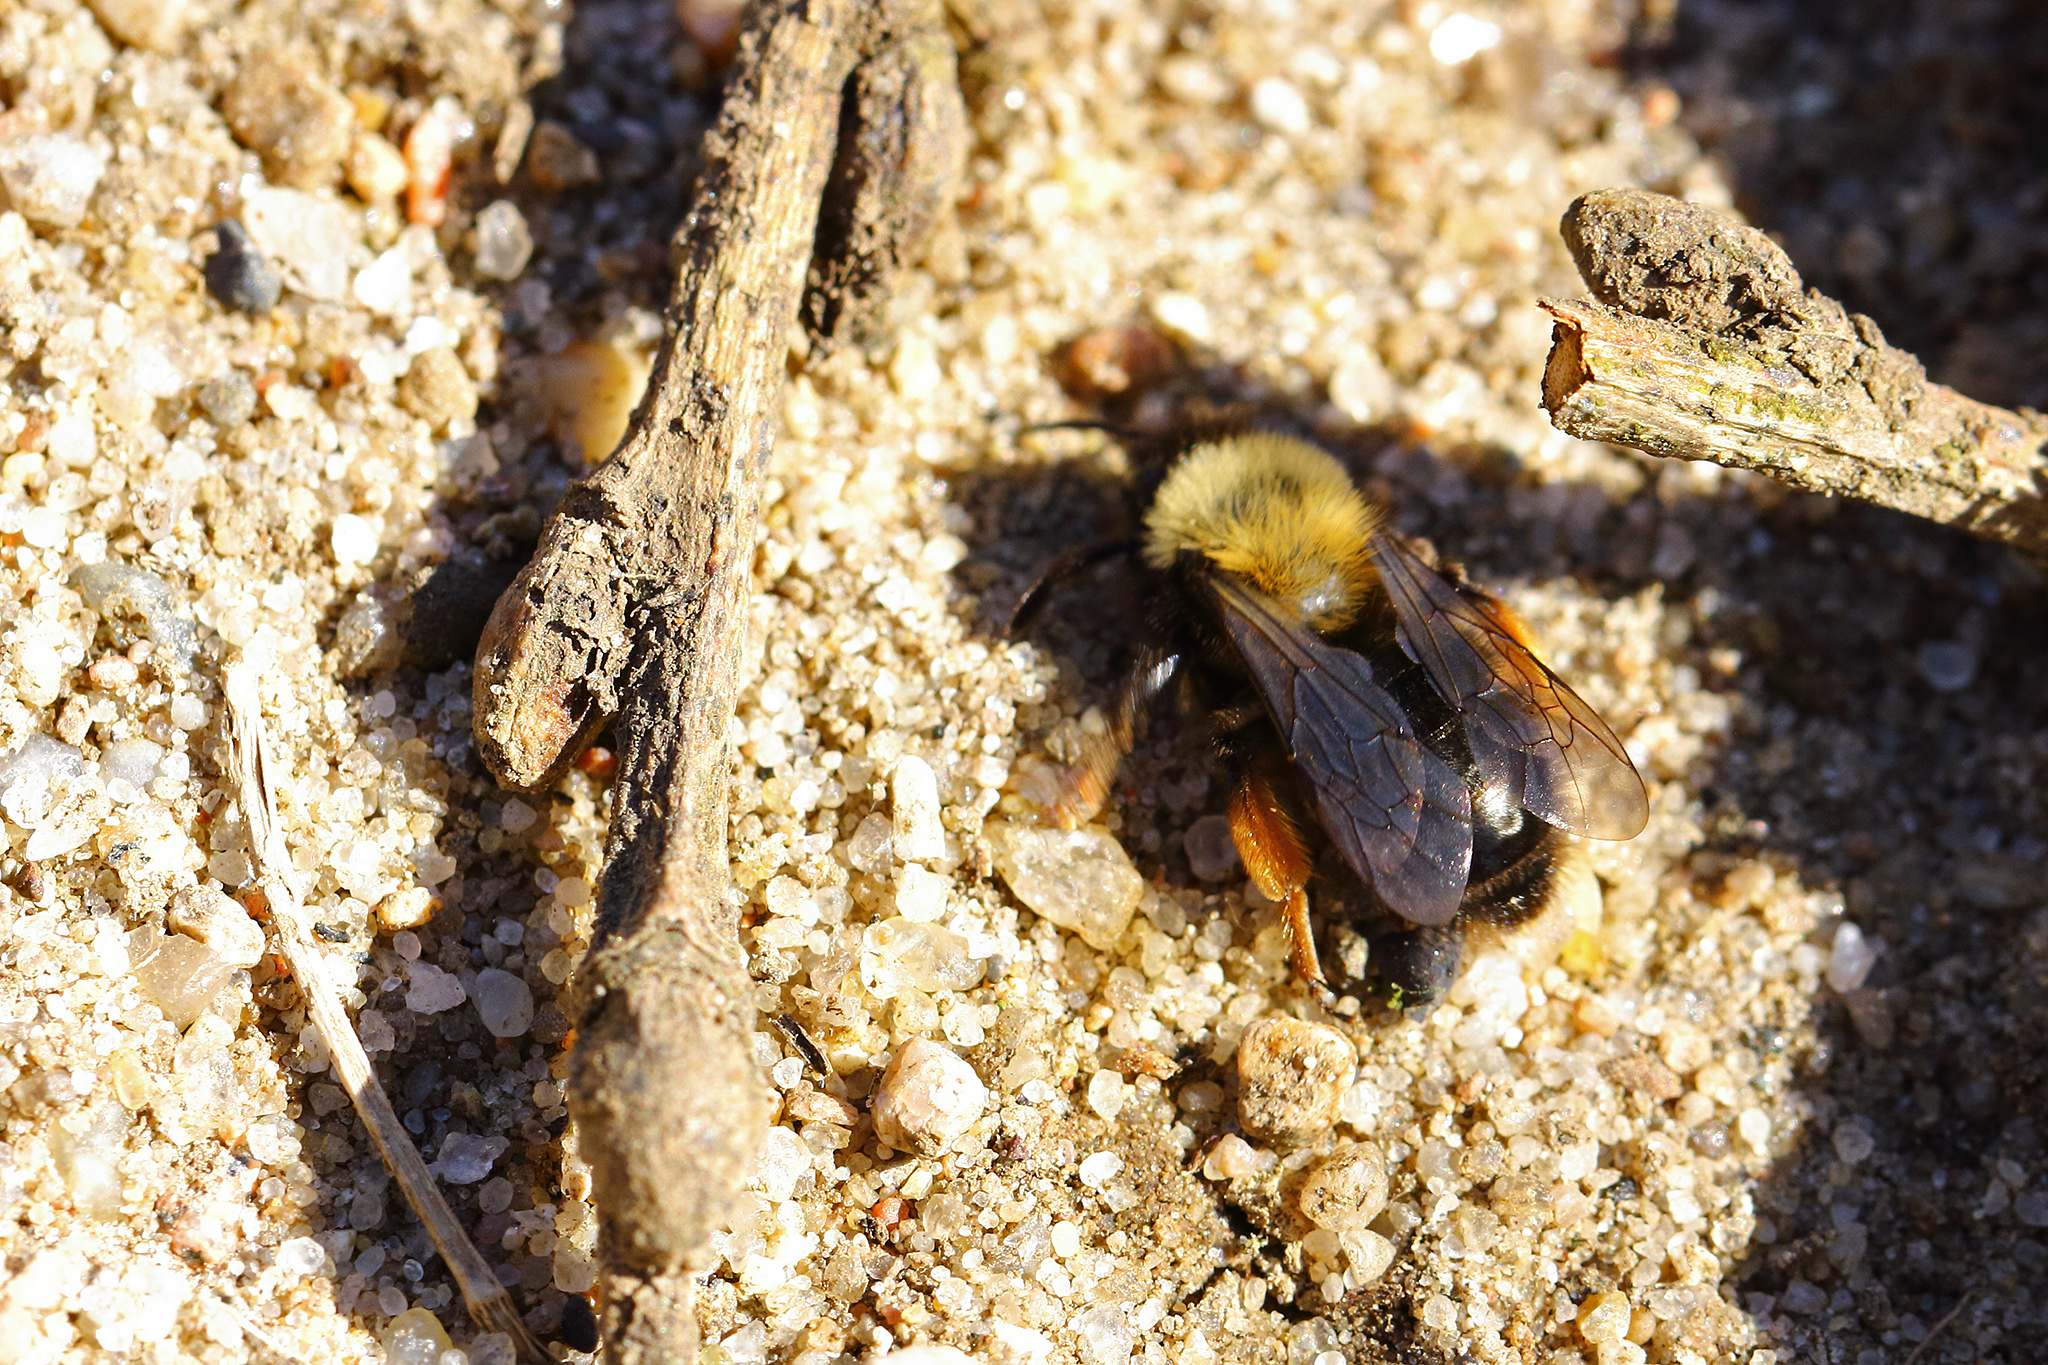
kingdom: Animalia
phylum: Arthropoda
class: Insecta
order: Hymenoptera
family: Andrenidae
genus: Andrena
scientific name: Andrena clarkella
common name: Clarke's mining bee
